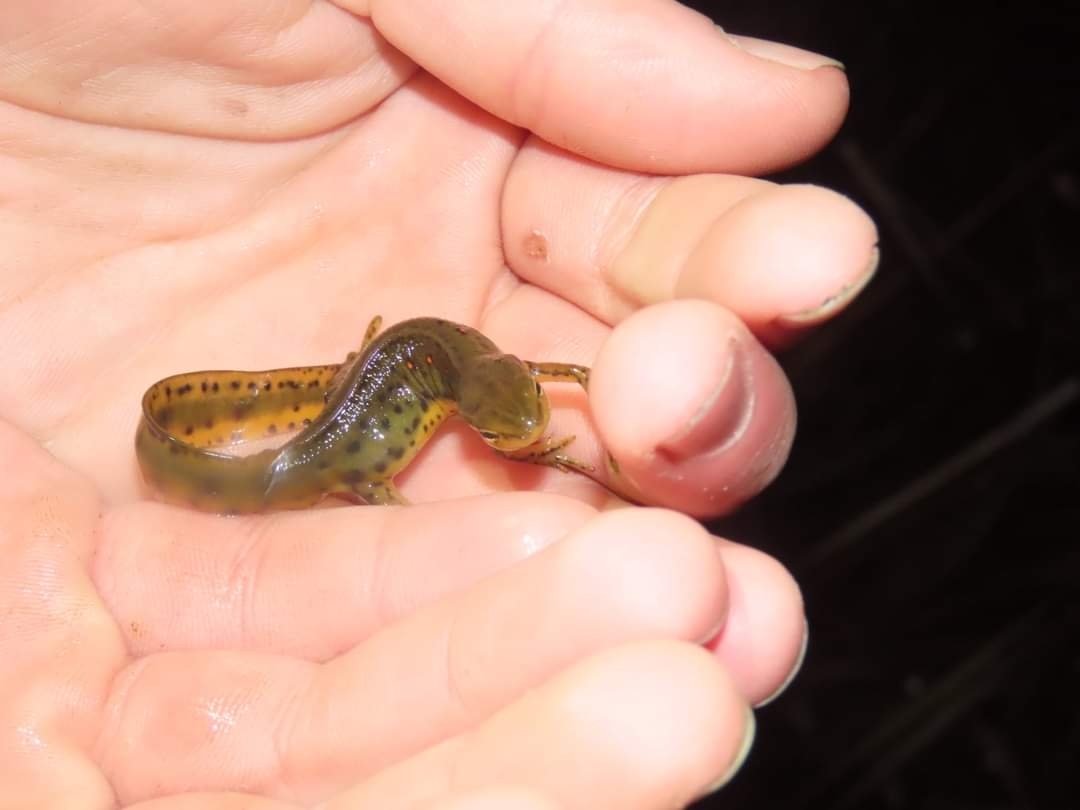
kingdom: Animalia
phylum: Chordata
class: Amphibia
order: Caudata
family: Salamandridae
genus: Notophthalmus
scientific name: Notophthalmus viridescens
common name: Eastern newt
